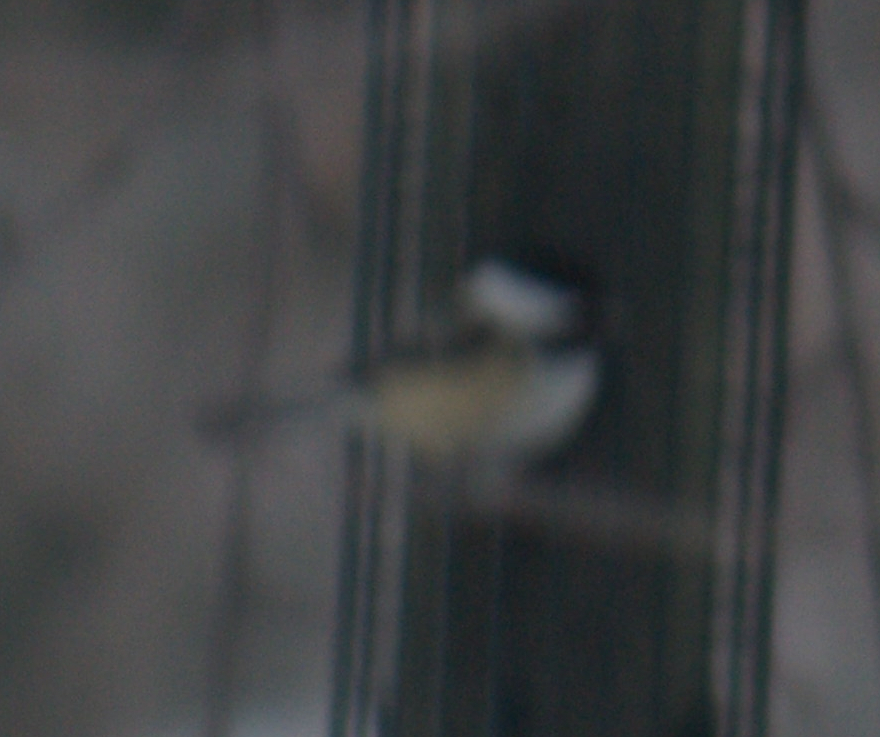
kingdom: Animalia
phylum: Chordata
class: Aves
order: Passeriformes
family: Paridae
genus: Poecile
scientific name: Poecile atricapillus
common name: Black-capped chickadee
